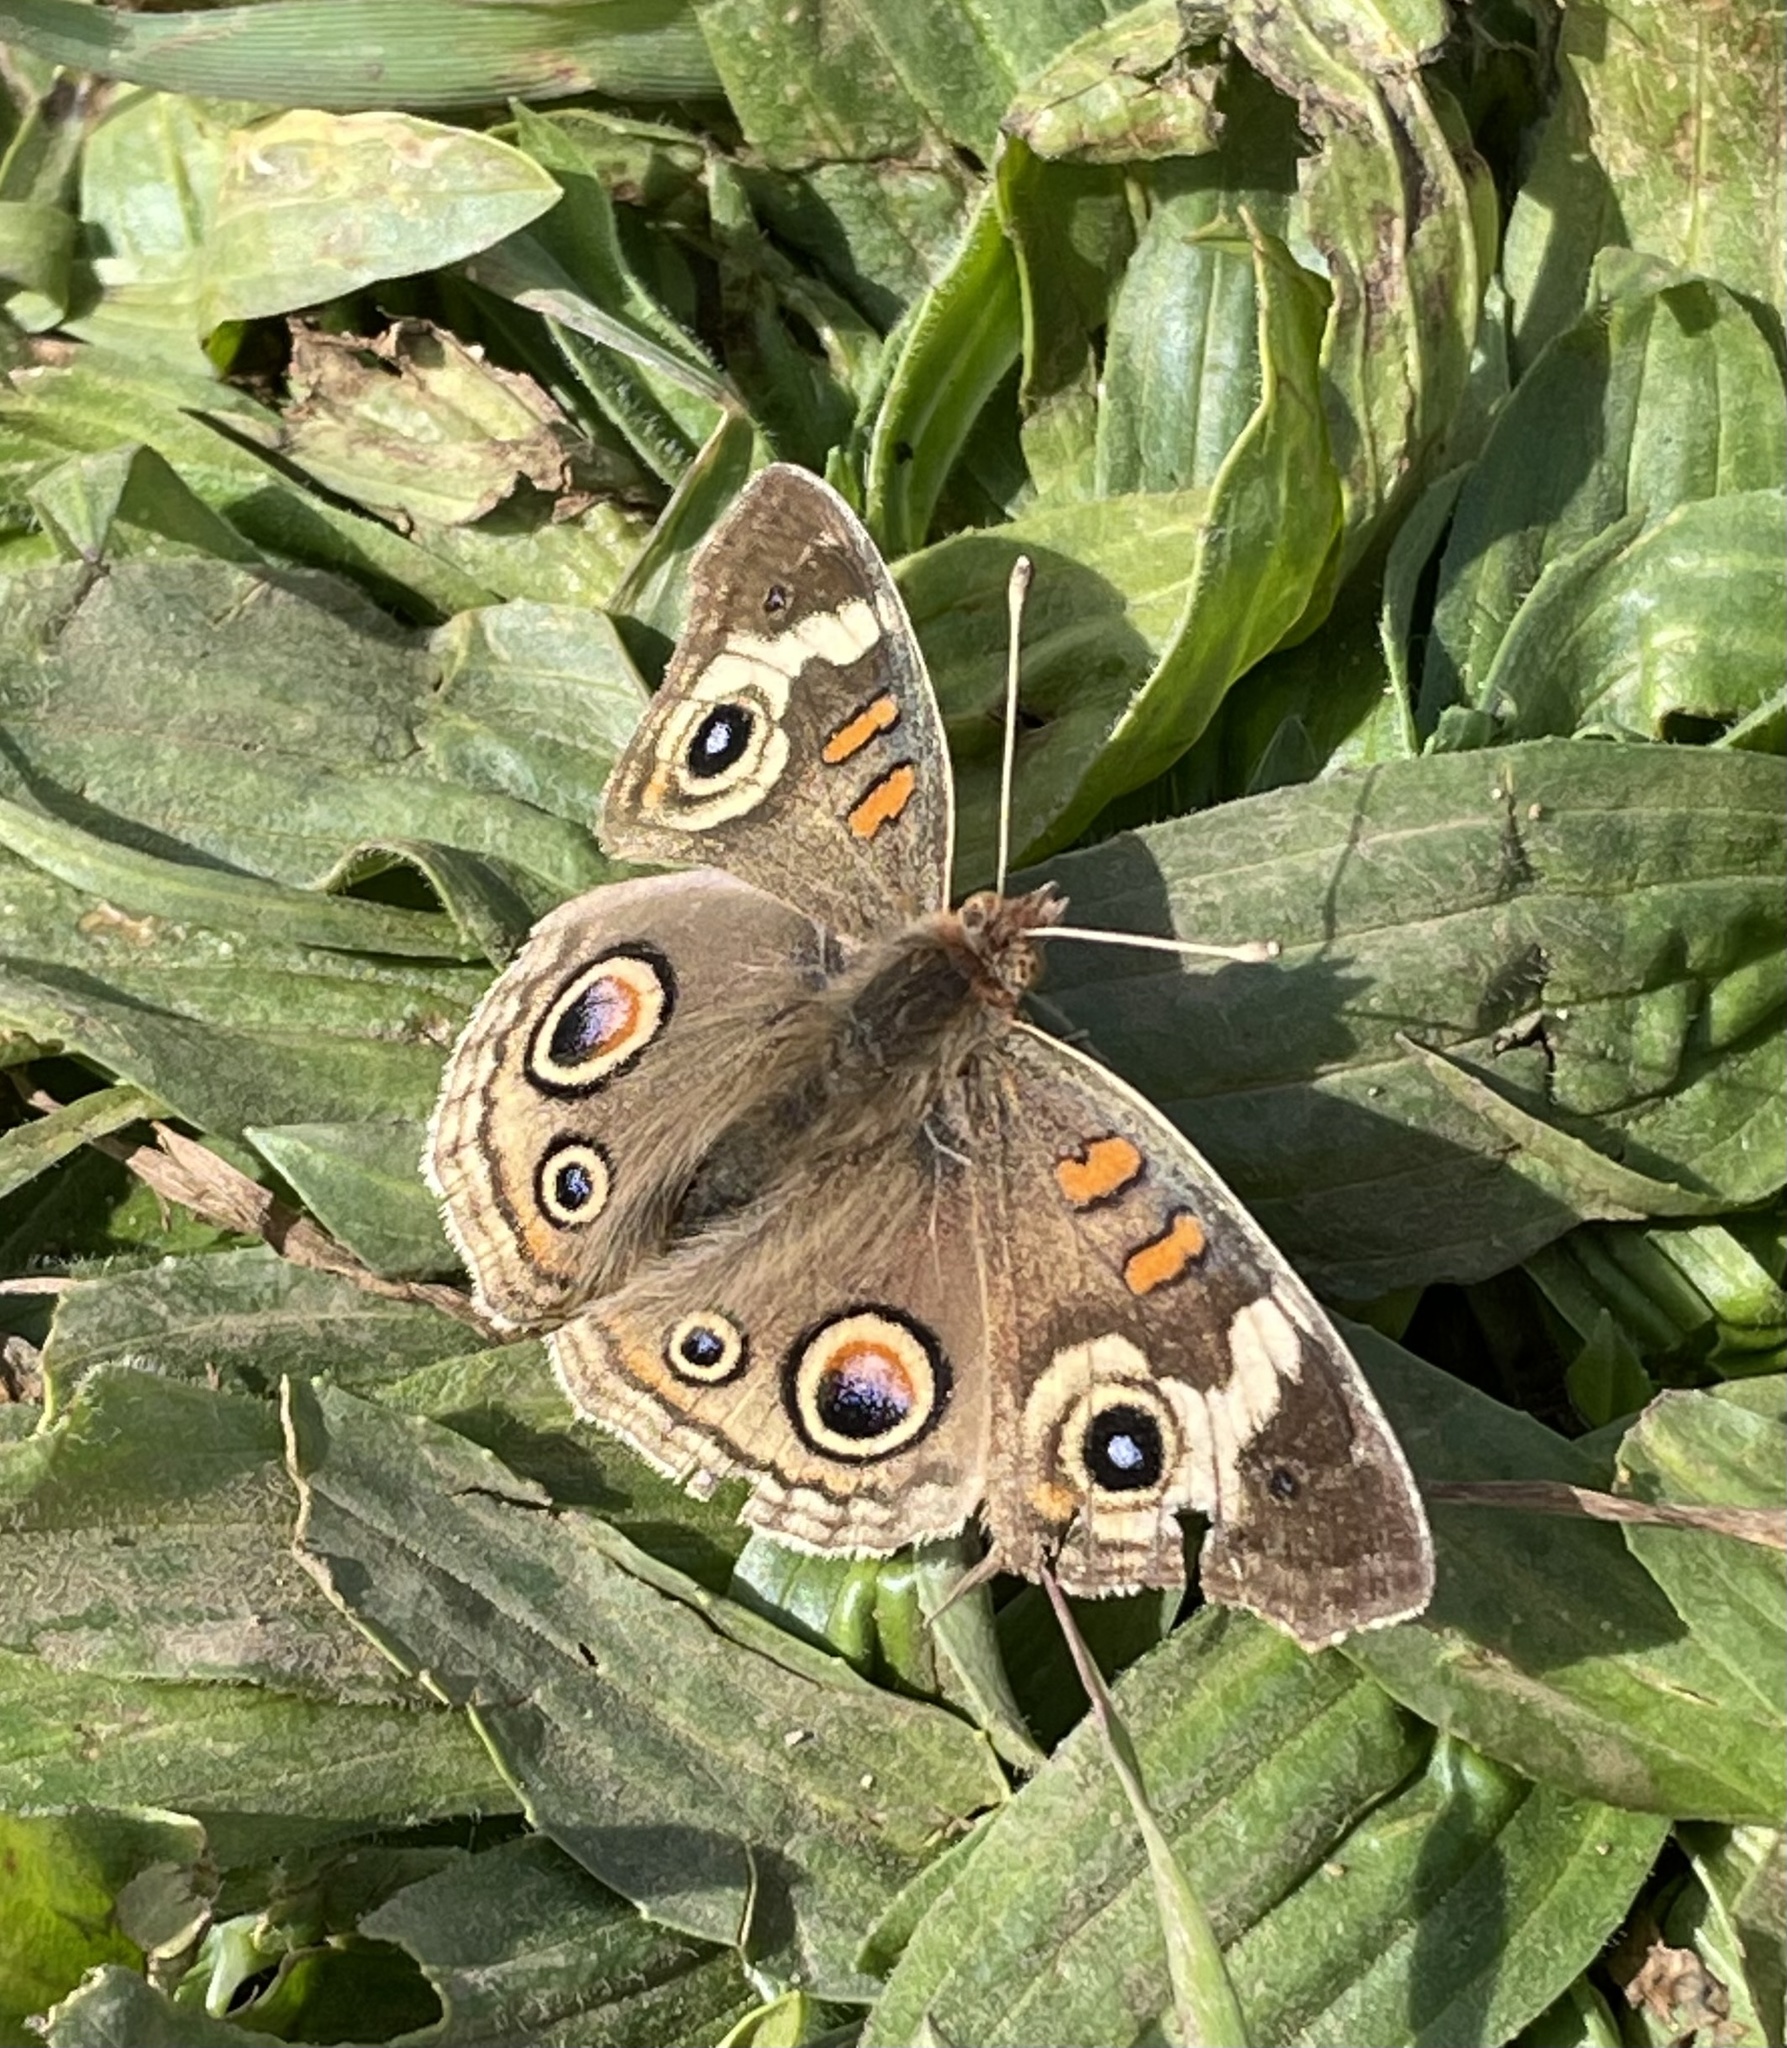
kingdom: Animalia
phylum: Arthropoda
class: Insecta
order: Lepidoptera
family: Nymphalidae
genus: Junonia
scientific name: Junonia grisea
